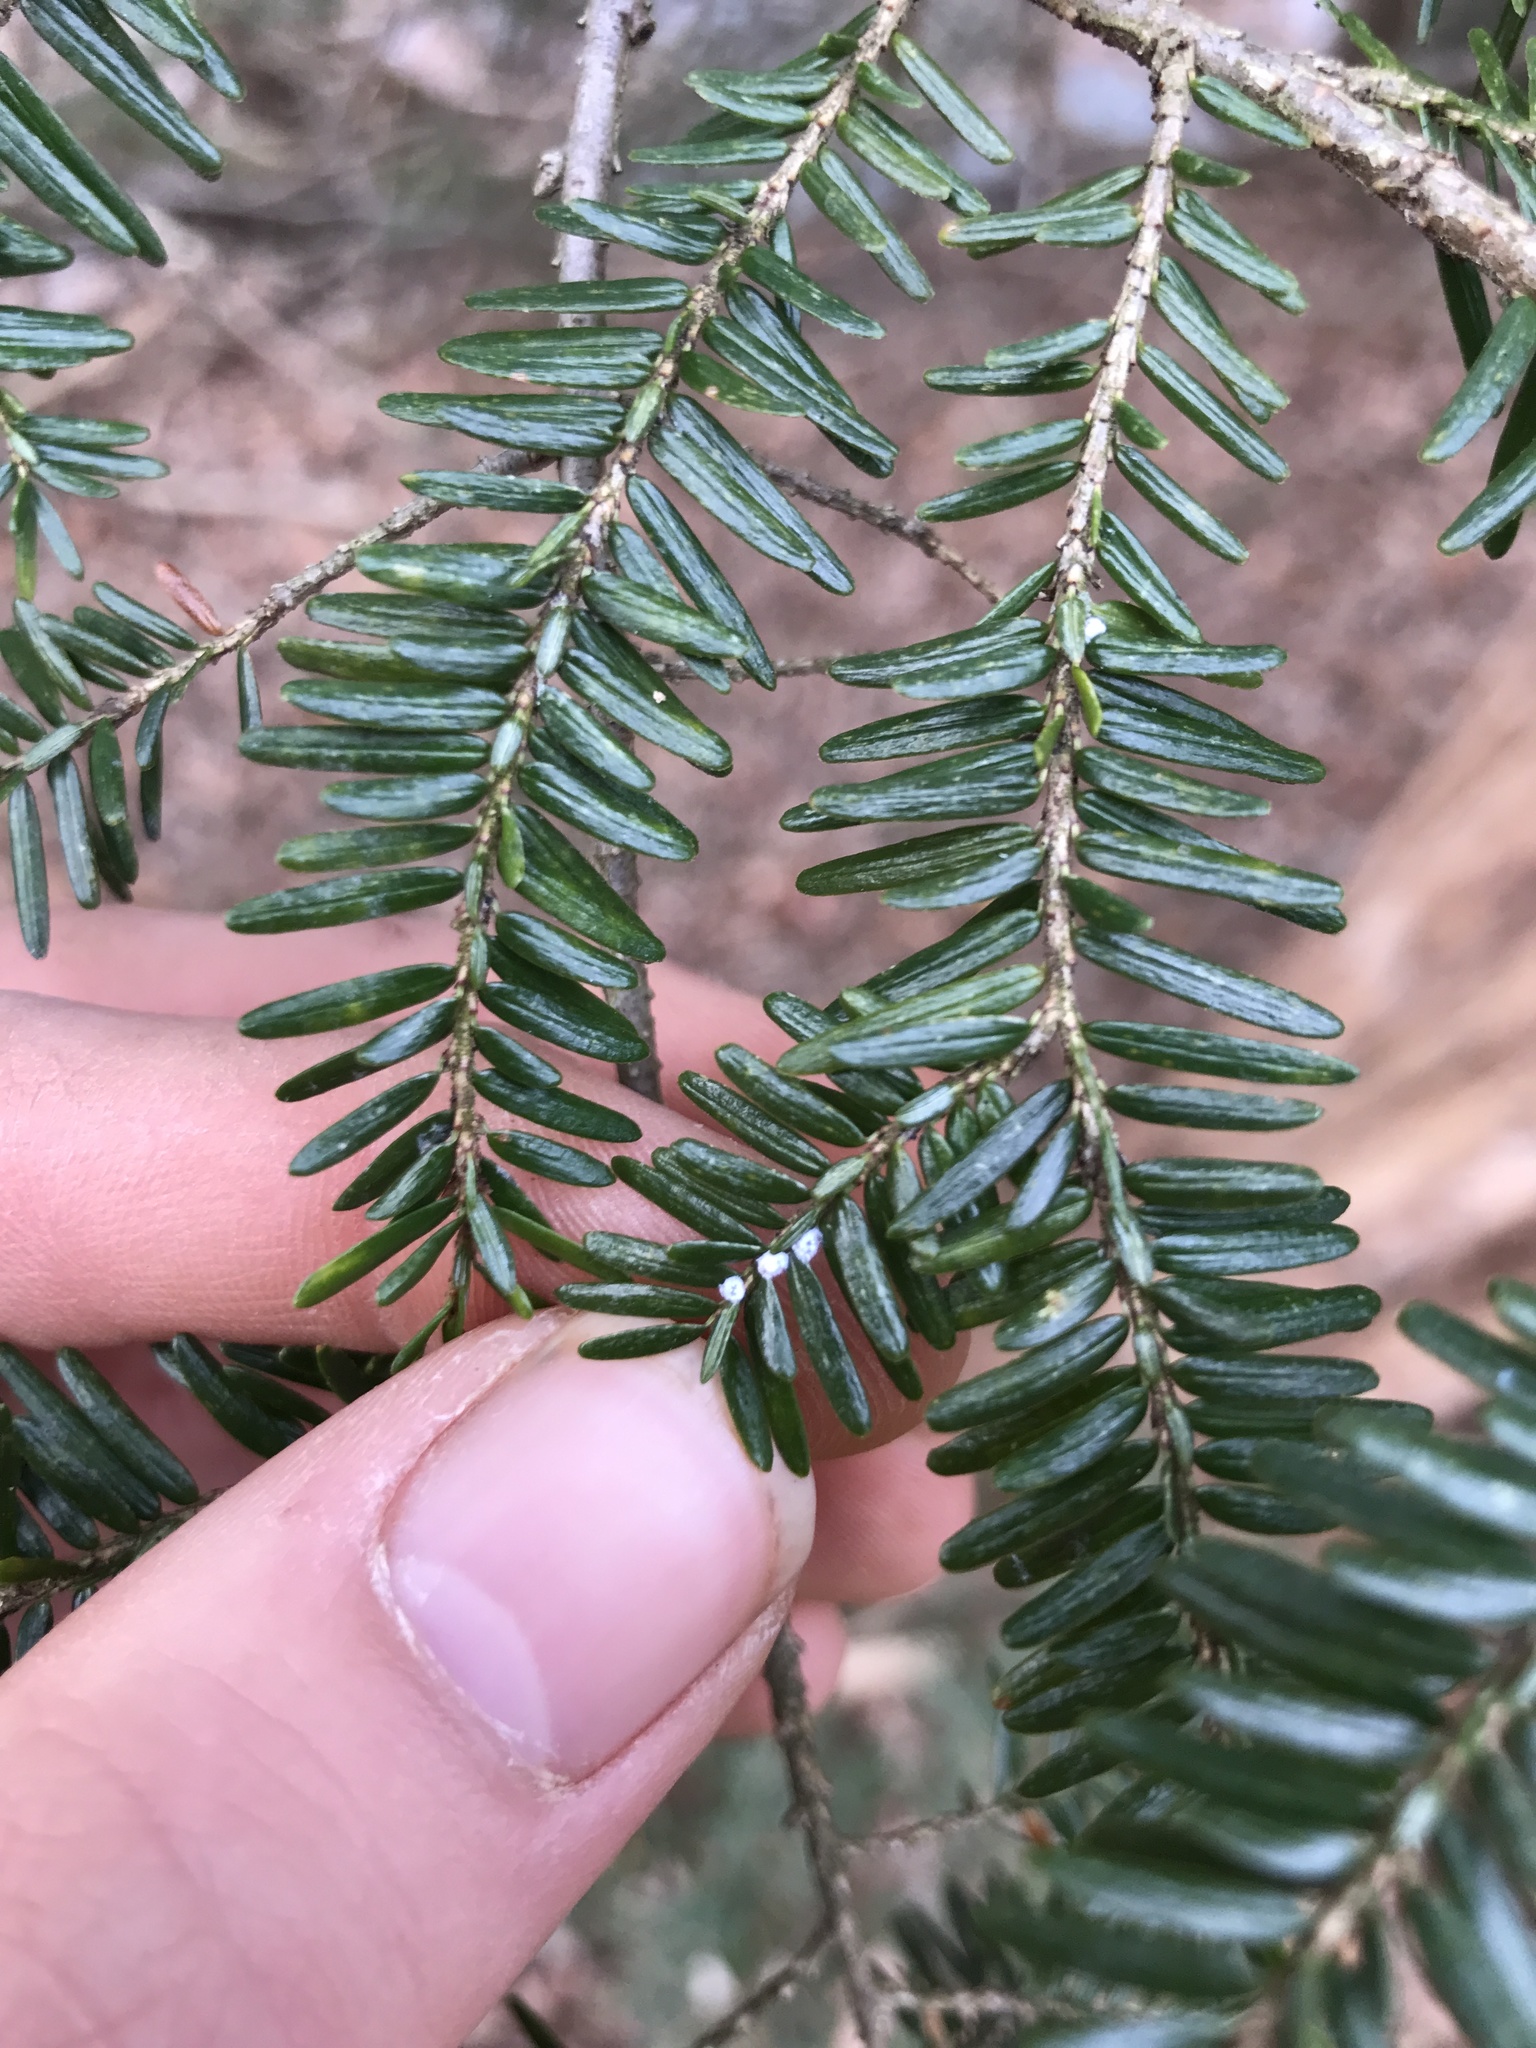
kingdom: Animalia
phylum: Arthropoda
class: Insecta
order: Hemiptera
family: Adelgidae
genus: Adelges
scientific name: Adelges tsugae
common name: Hemlock woolly adelgid
